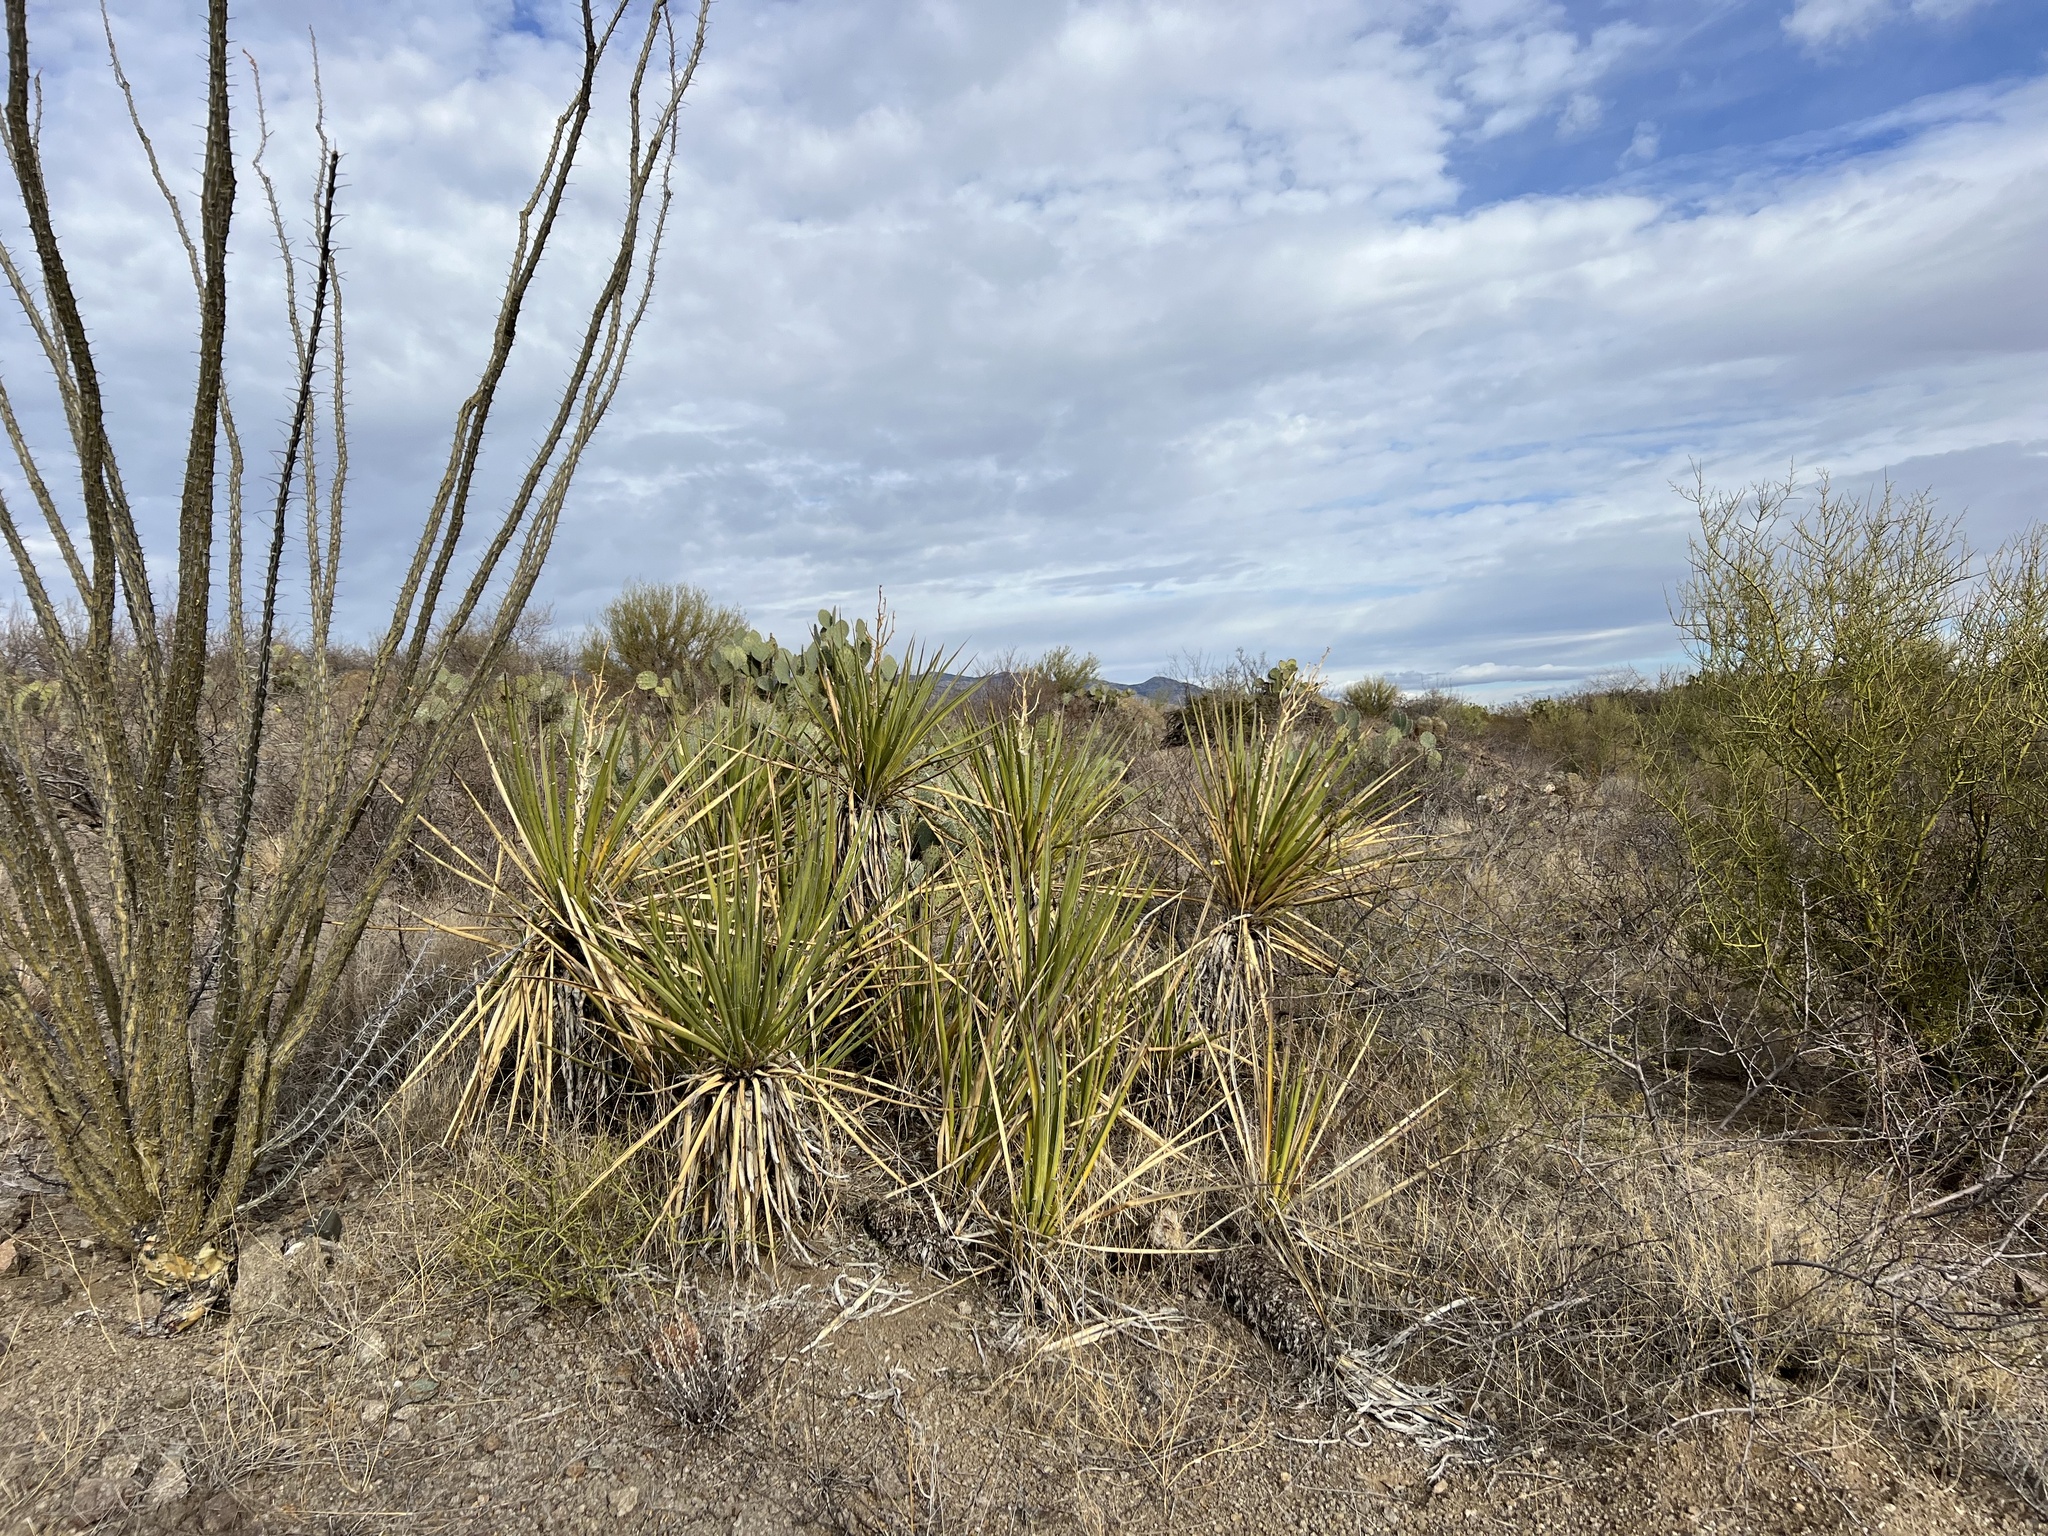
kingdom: Plantae
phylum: Tracheophyta
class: Liliopsida
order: Asparagales
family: Asparagaceae
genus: Yucca
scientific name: Yucca baccata
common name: Banana yucca
